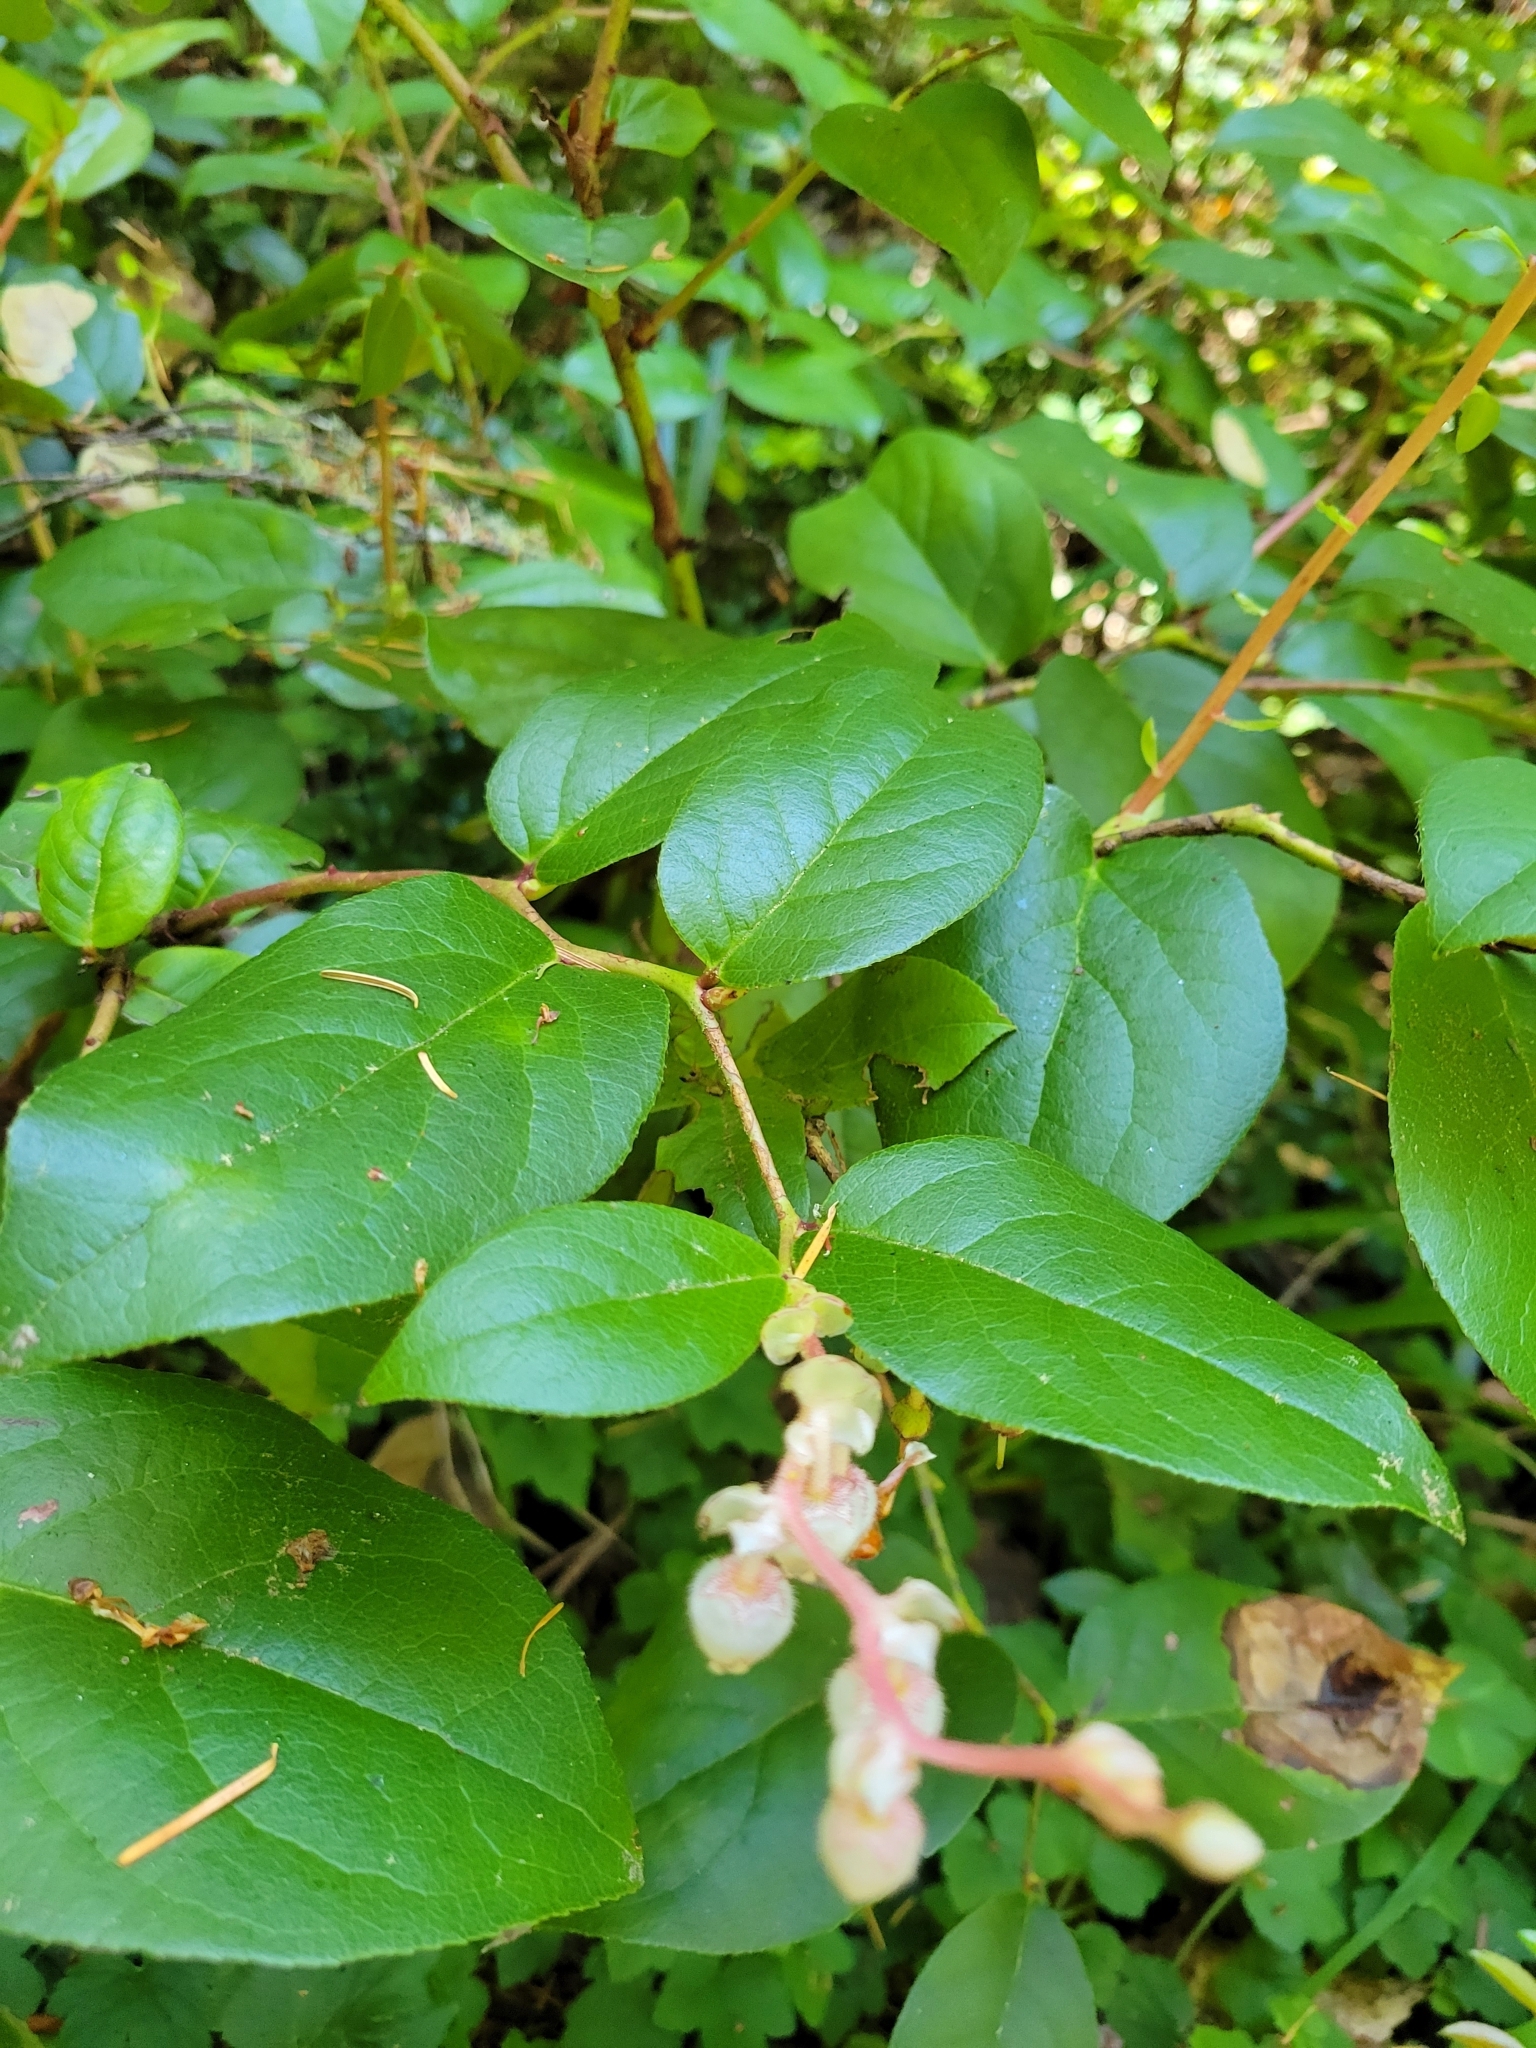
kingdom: Plantae
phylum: Tracheophyta
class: Magnoliopsida
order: Ericales
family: Ericaceae
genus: Gaultheria
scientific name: Gaultheria shallon
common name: Shallon
